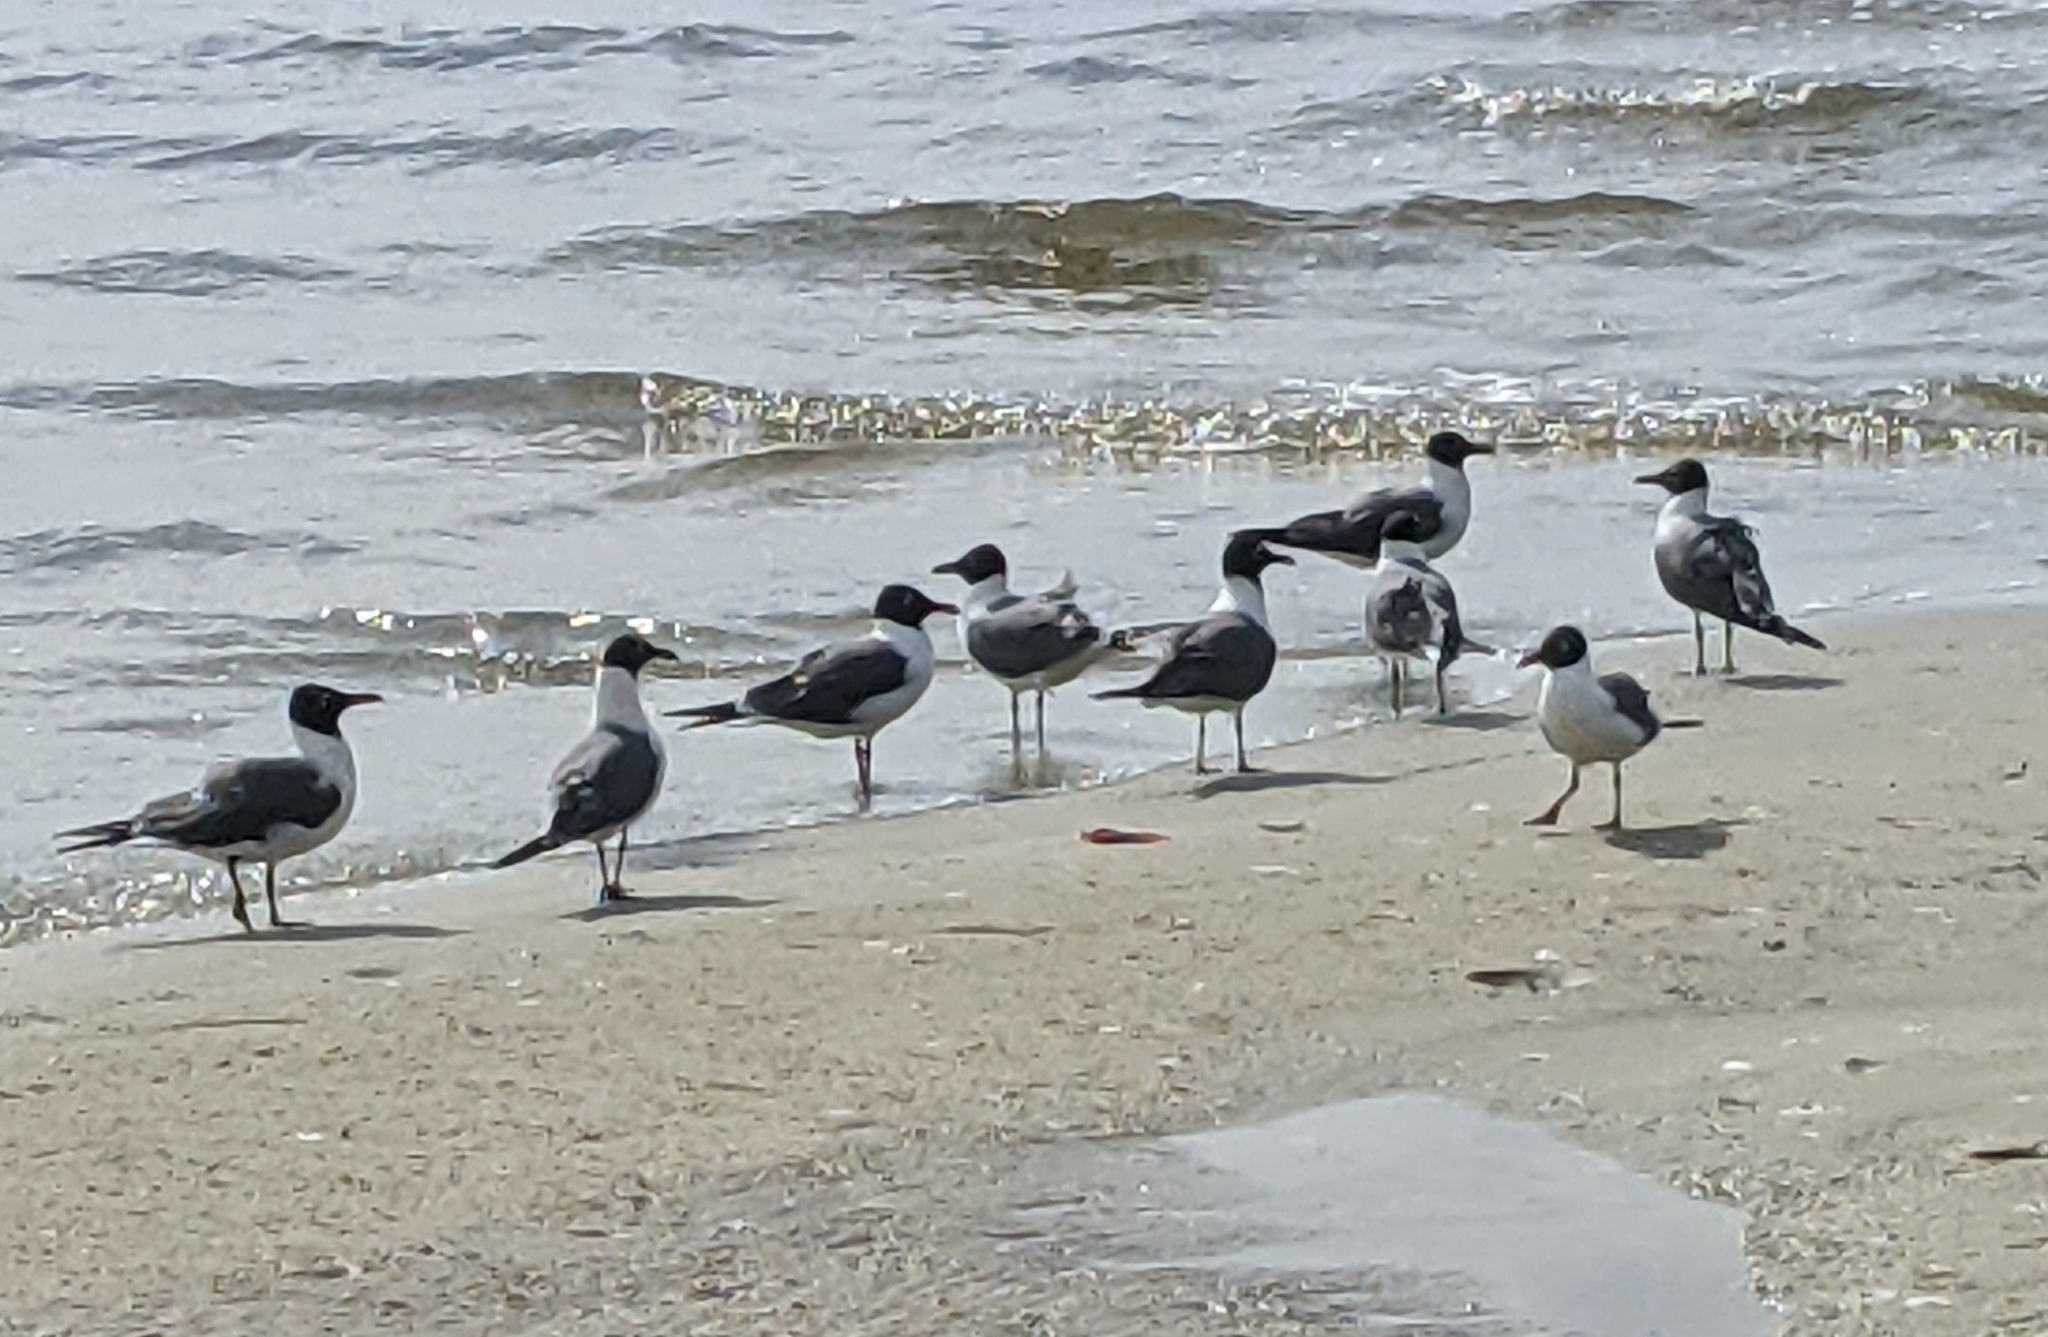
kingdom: Animalia
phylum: Chordata
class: Aves
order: Charadriiformes
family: Laridae
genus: Leucophaeus
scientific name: Leucophaeus atricilla
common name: Laughing gull
